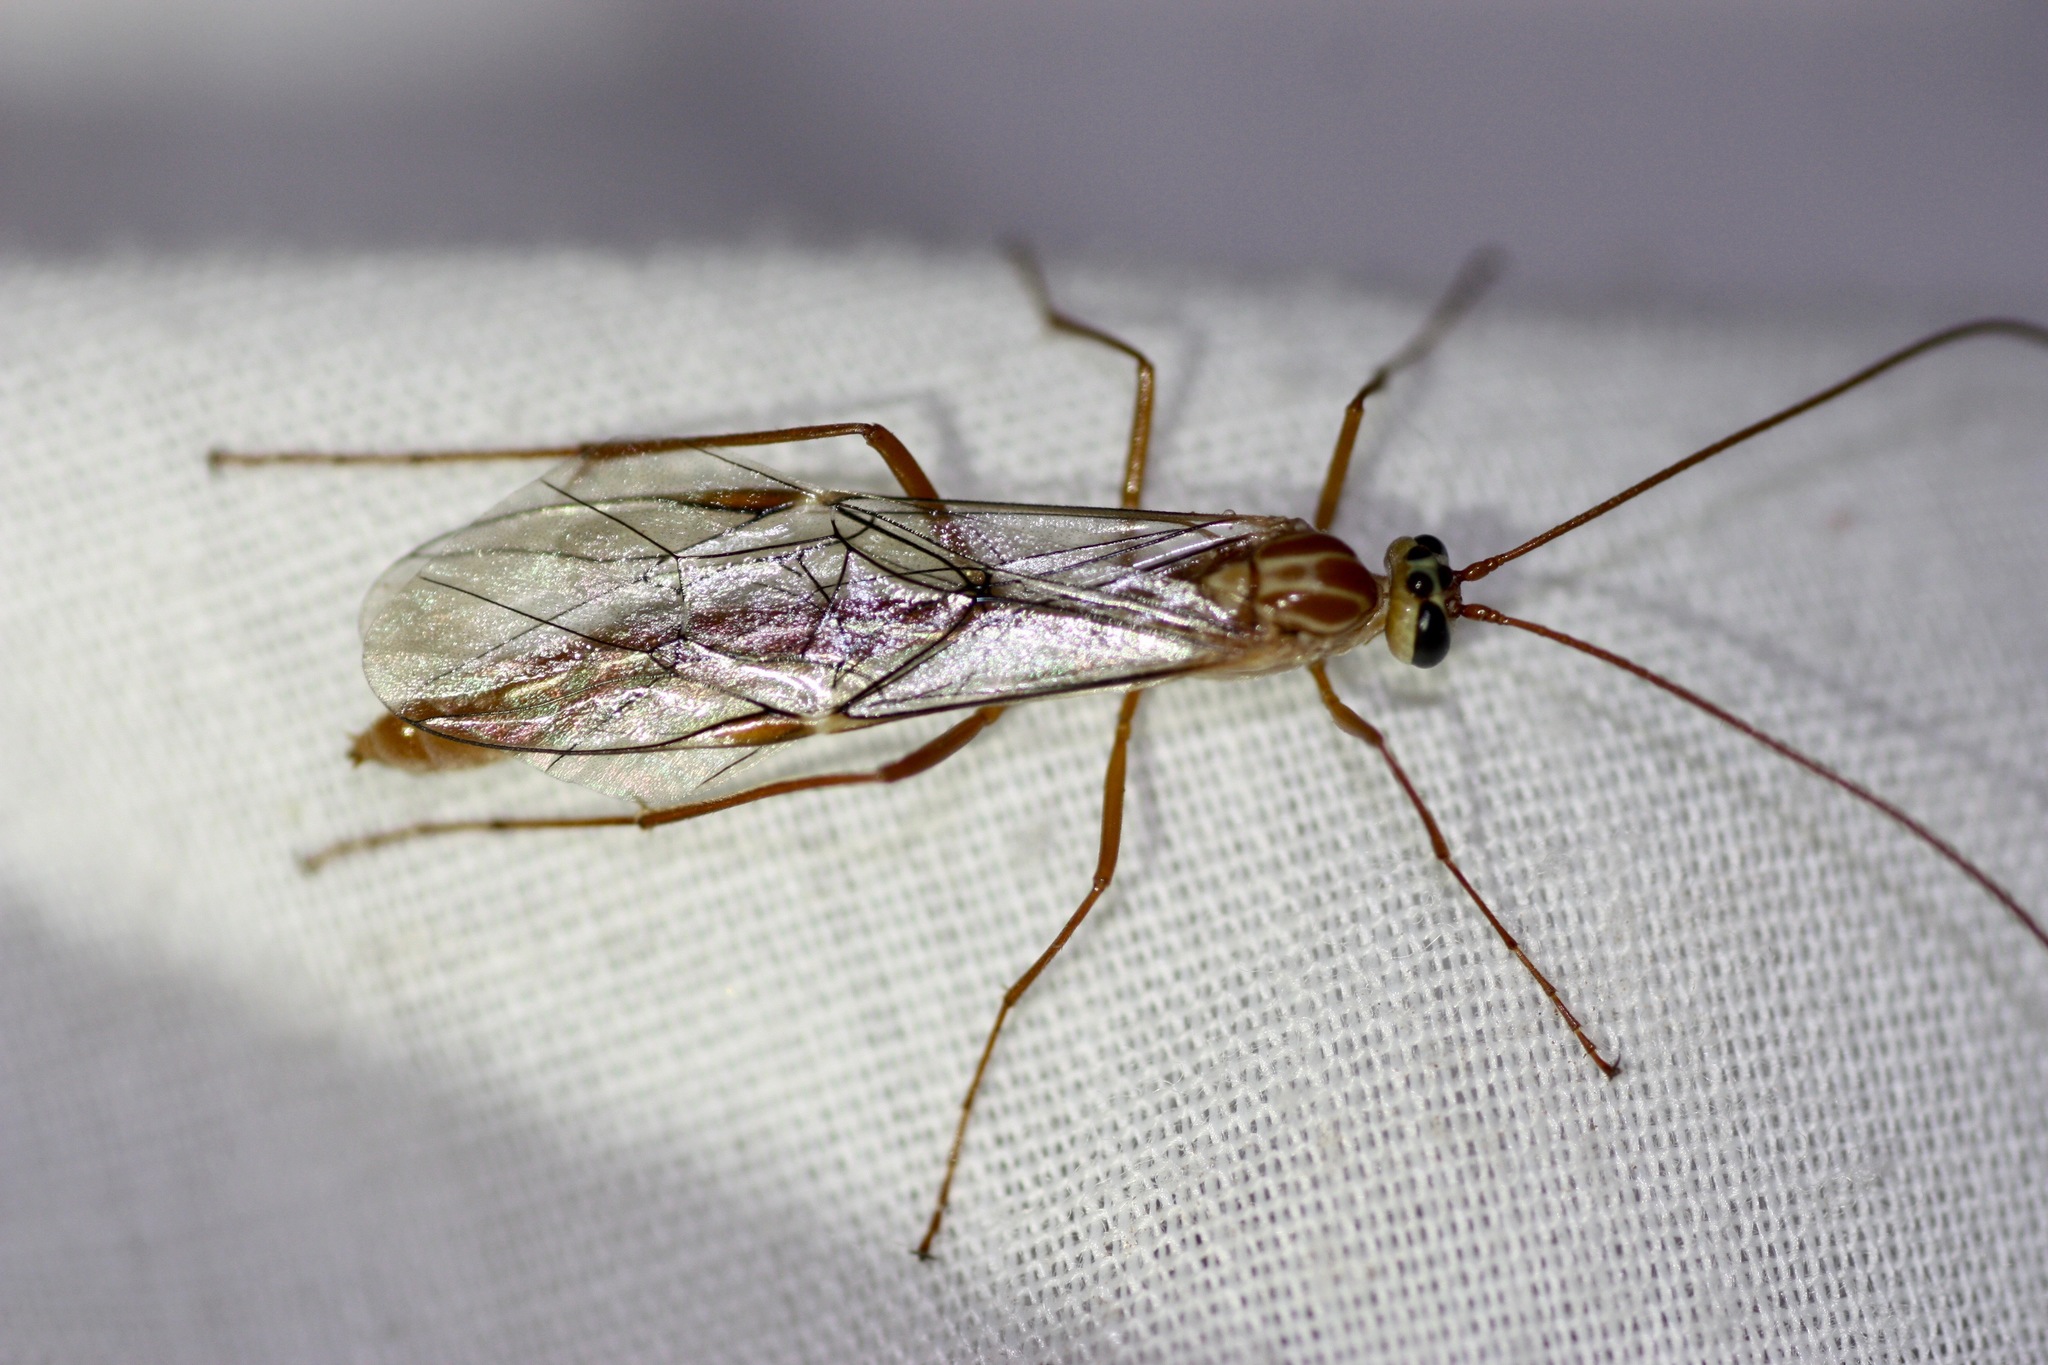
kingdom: Animalia
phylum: Arthropoda
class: Insecta
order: Hymenoptera
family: Ichneumonidae
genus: Ophion
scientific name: Ophion
